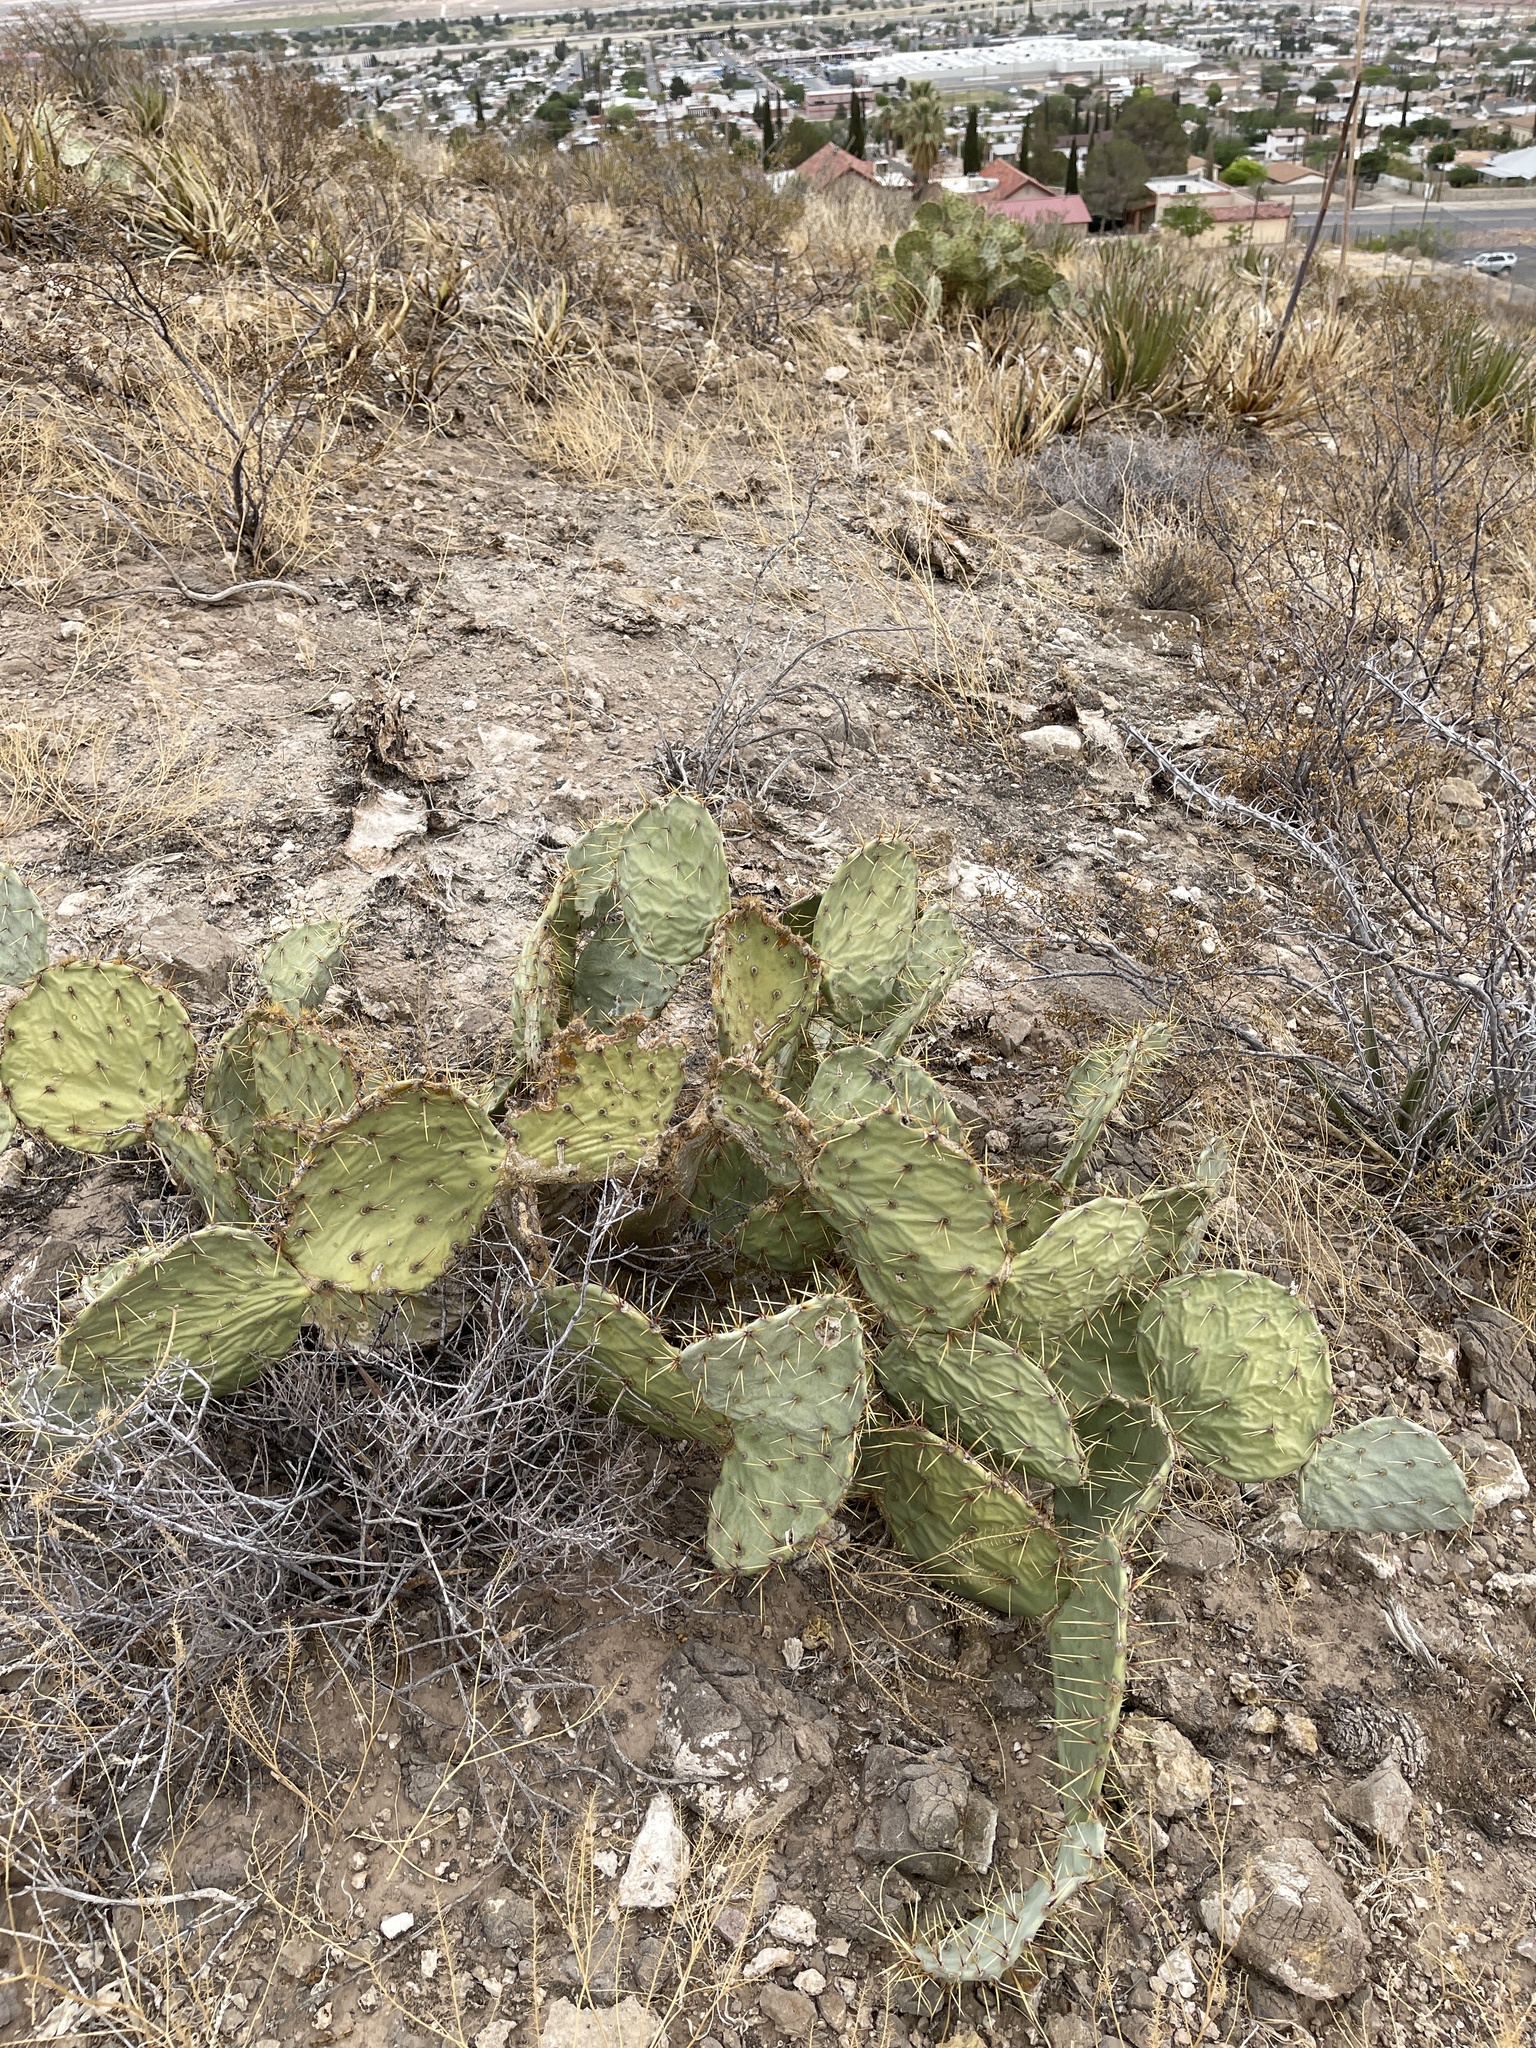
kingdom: Plantae
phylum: Tracheophyta
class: Magnoliopsida
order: Caryophyllales
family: Cactaceae
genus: Opuntia
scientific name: Opuntia engelmannii
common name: Cactus-apple
